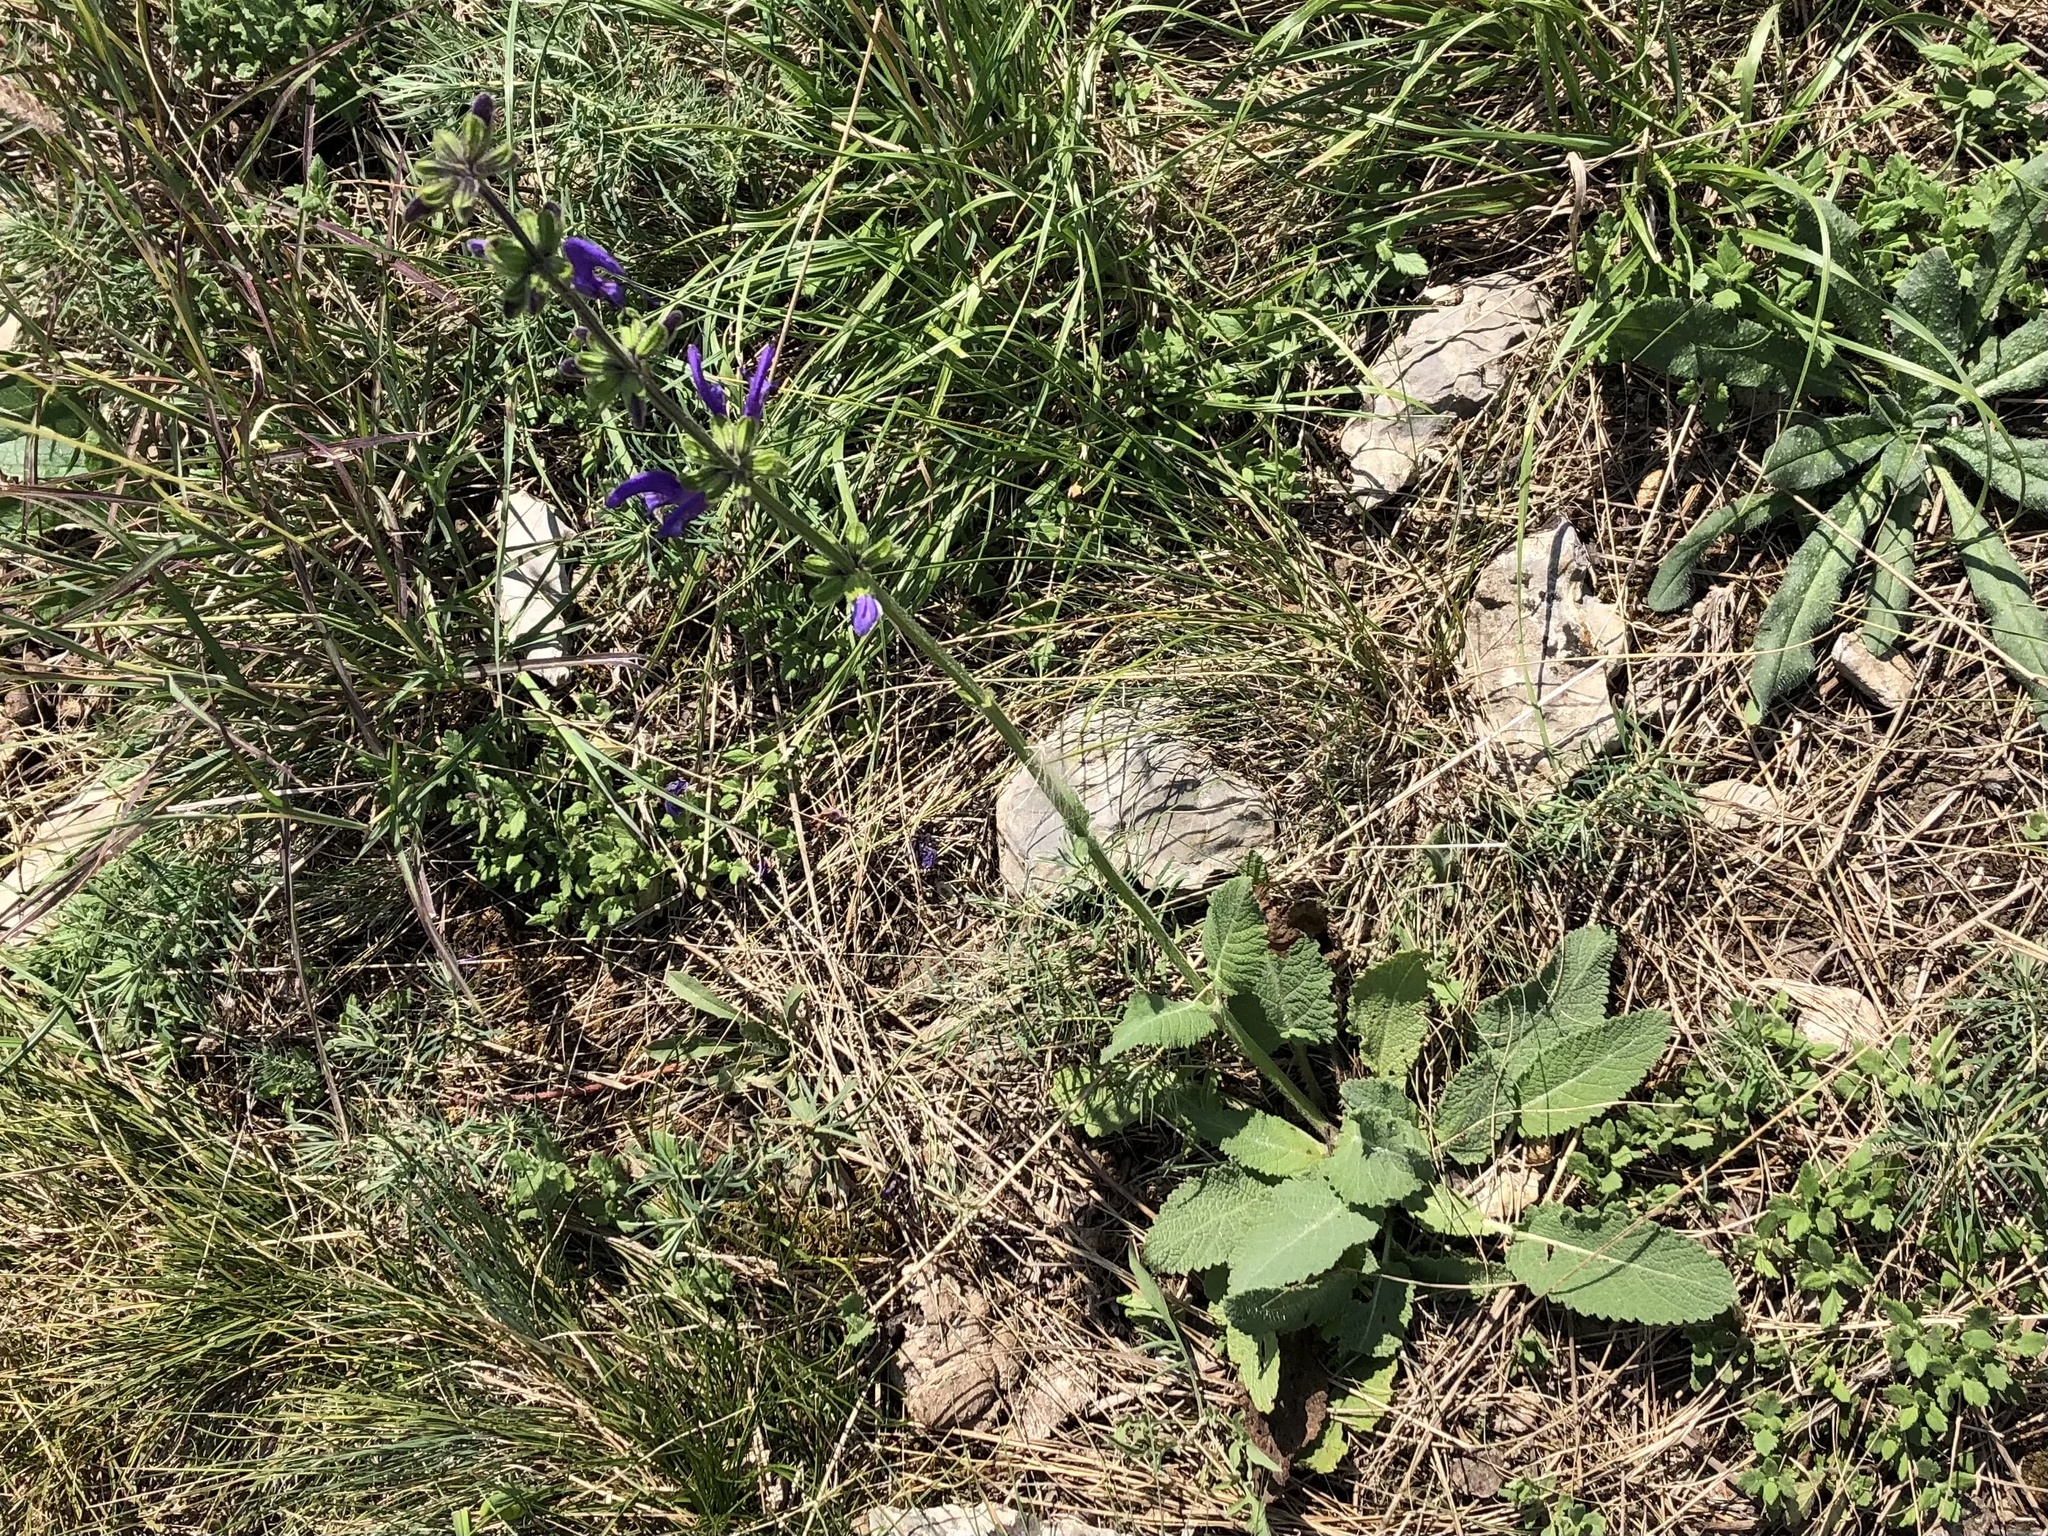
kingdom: Plantae
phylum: Tracheophyta
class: Magnoliopsida
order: Lamiales
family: Lamiaceae
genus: Salvia
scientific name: Salvia pratensis
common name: Meadow sage
